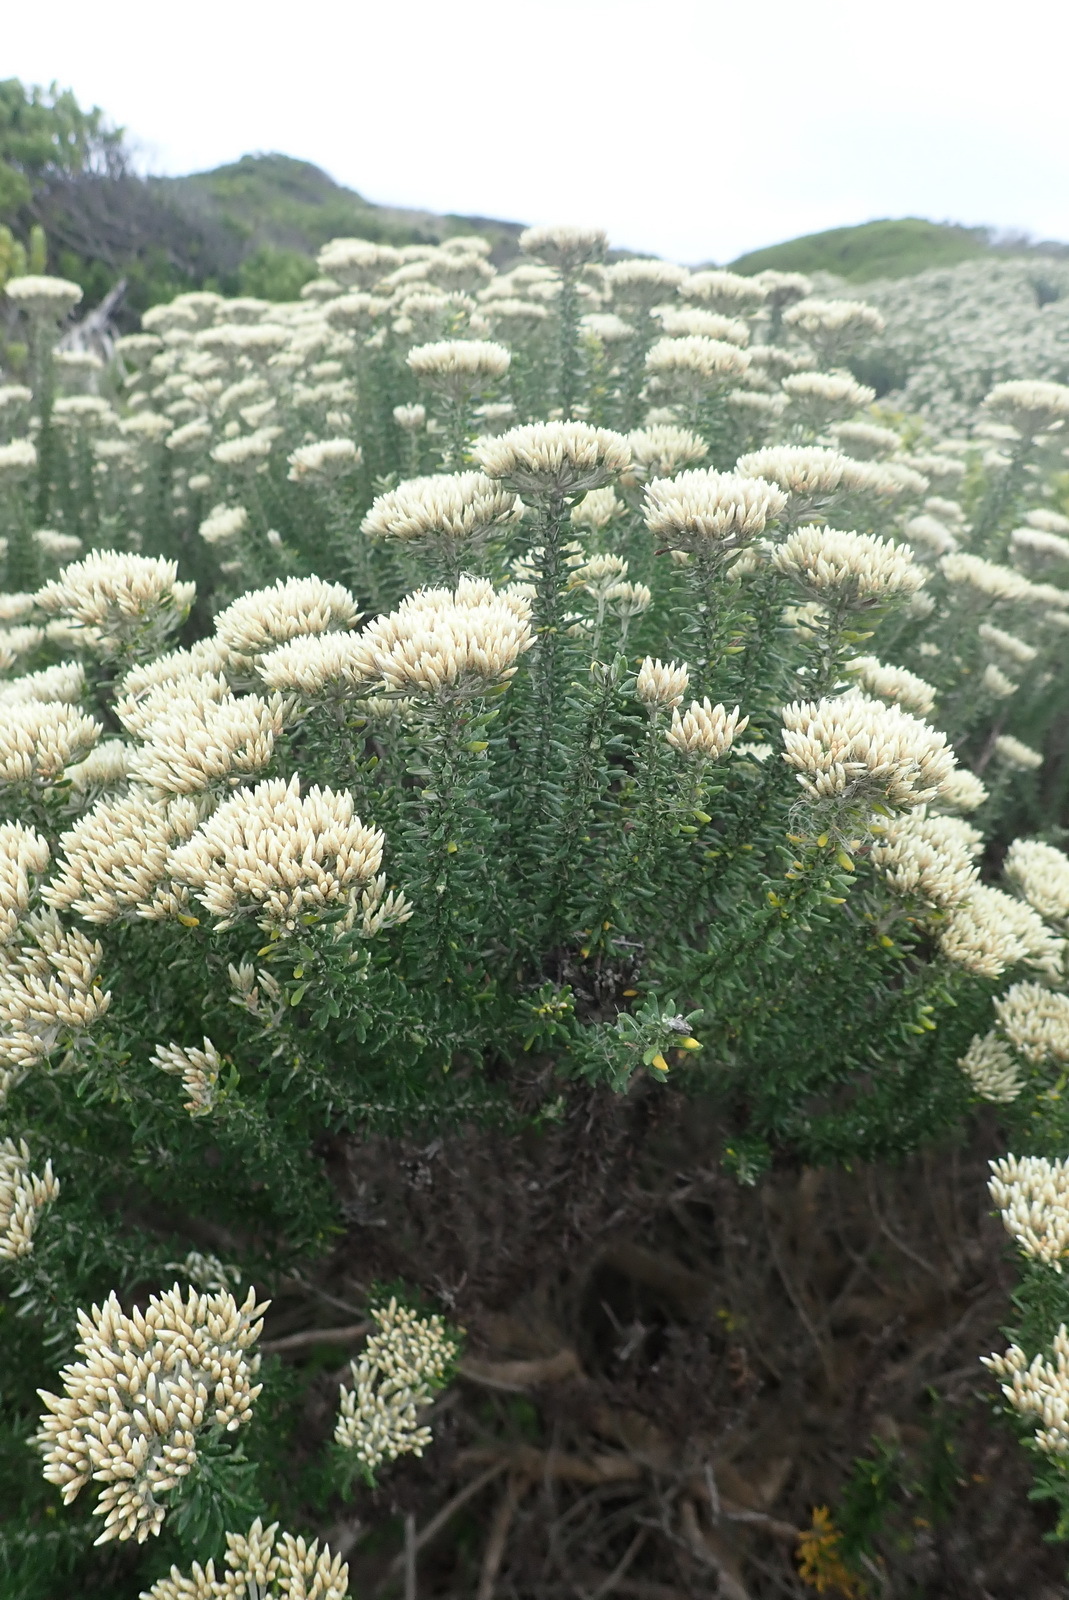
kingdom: Plantae
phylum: Tracheophyta
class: Magnoliopsida
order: Asterales
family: Asteraceae
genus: Metalasia
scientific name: Metalasia muricata
